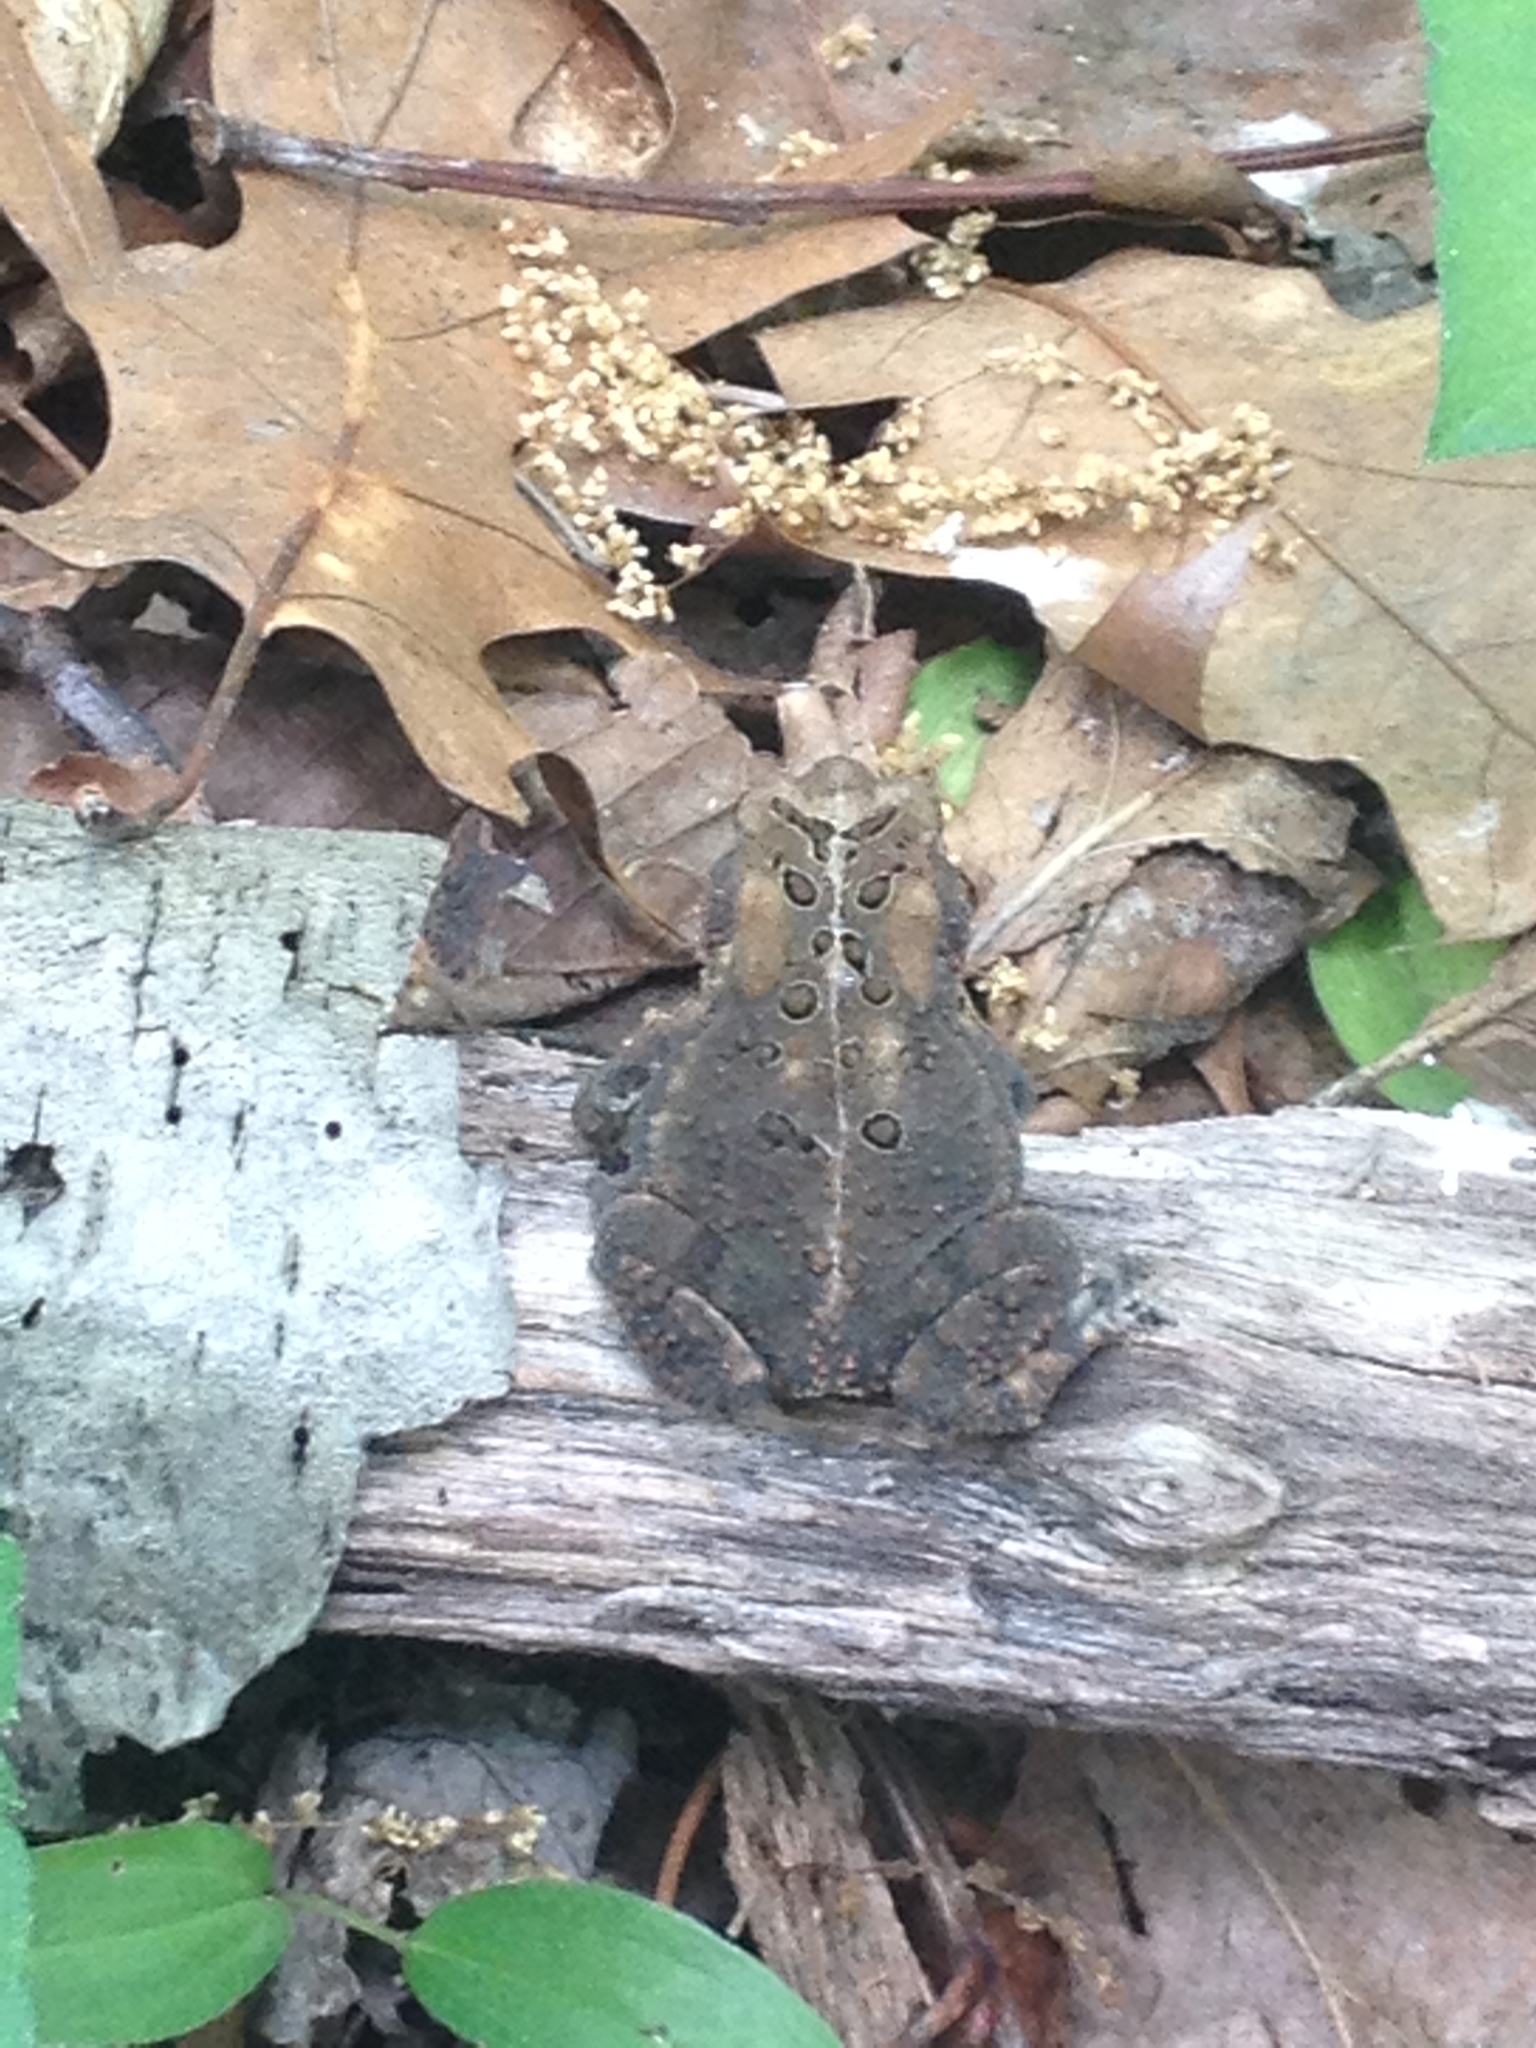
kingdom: Animalia
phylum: Chordata
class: Amphibia
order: Anura
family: Bufonidae
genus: Anaxyrus
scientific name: Anaxyrus americanus
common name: American toad
